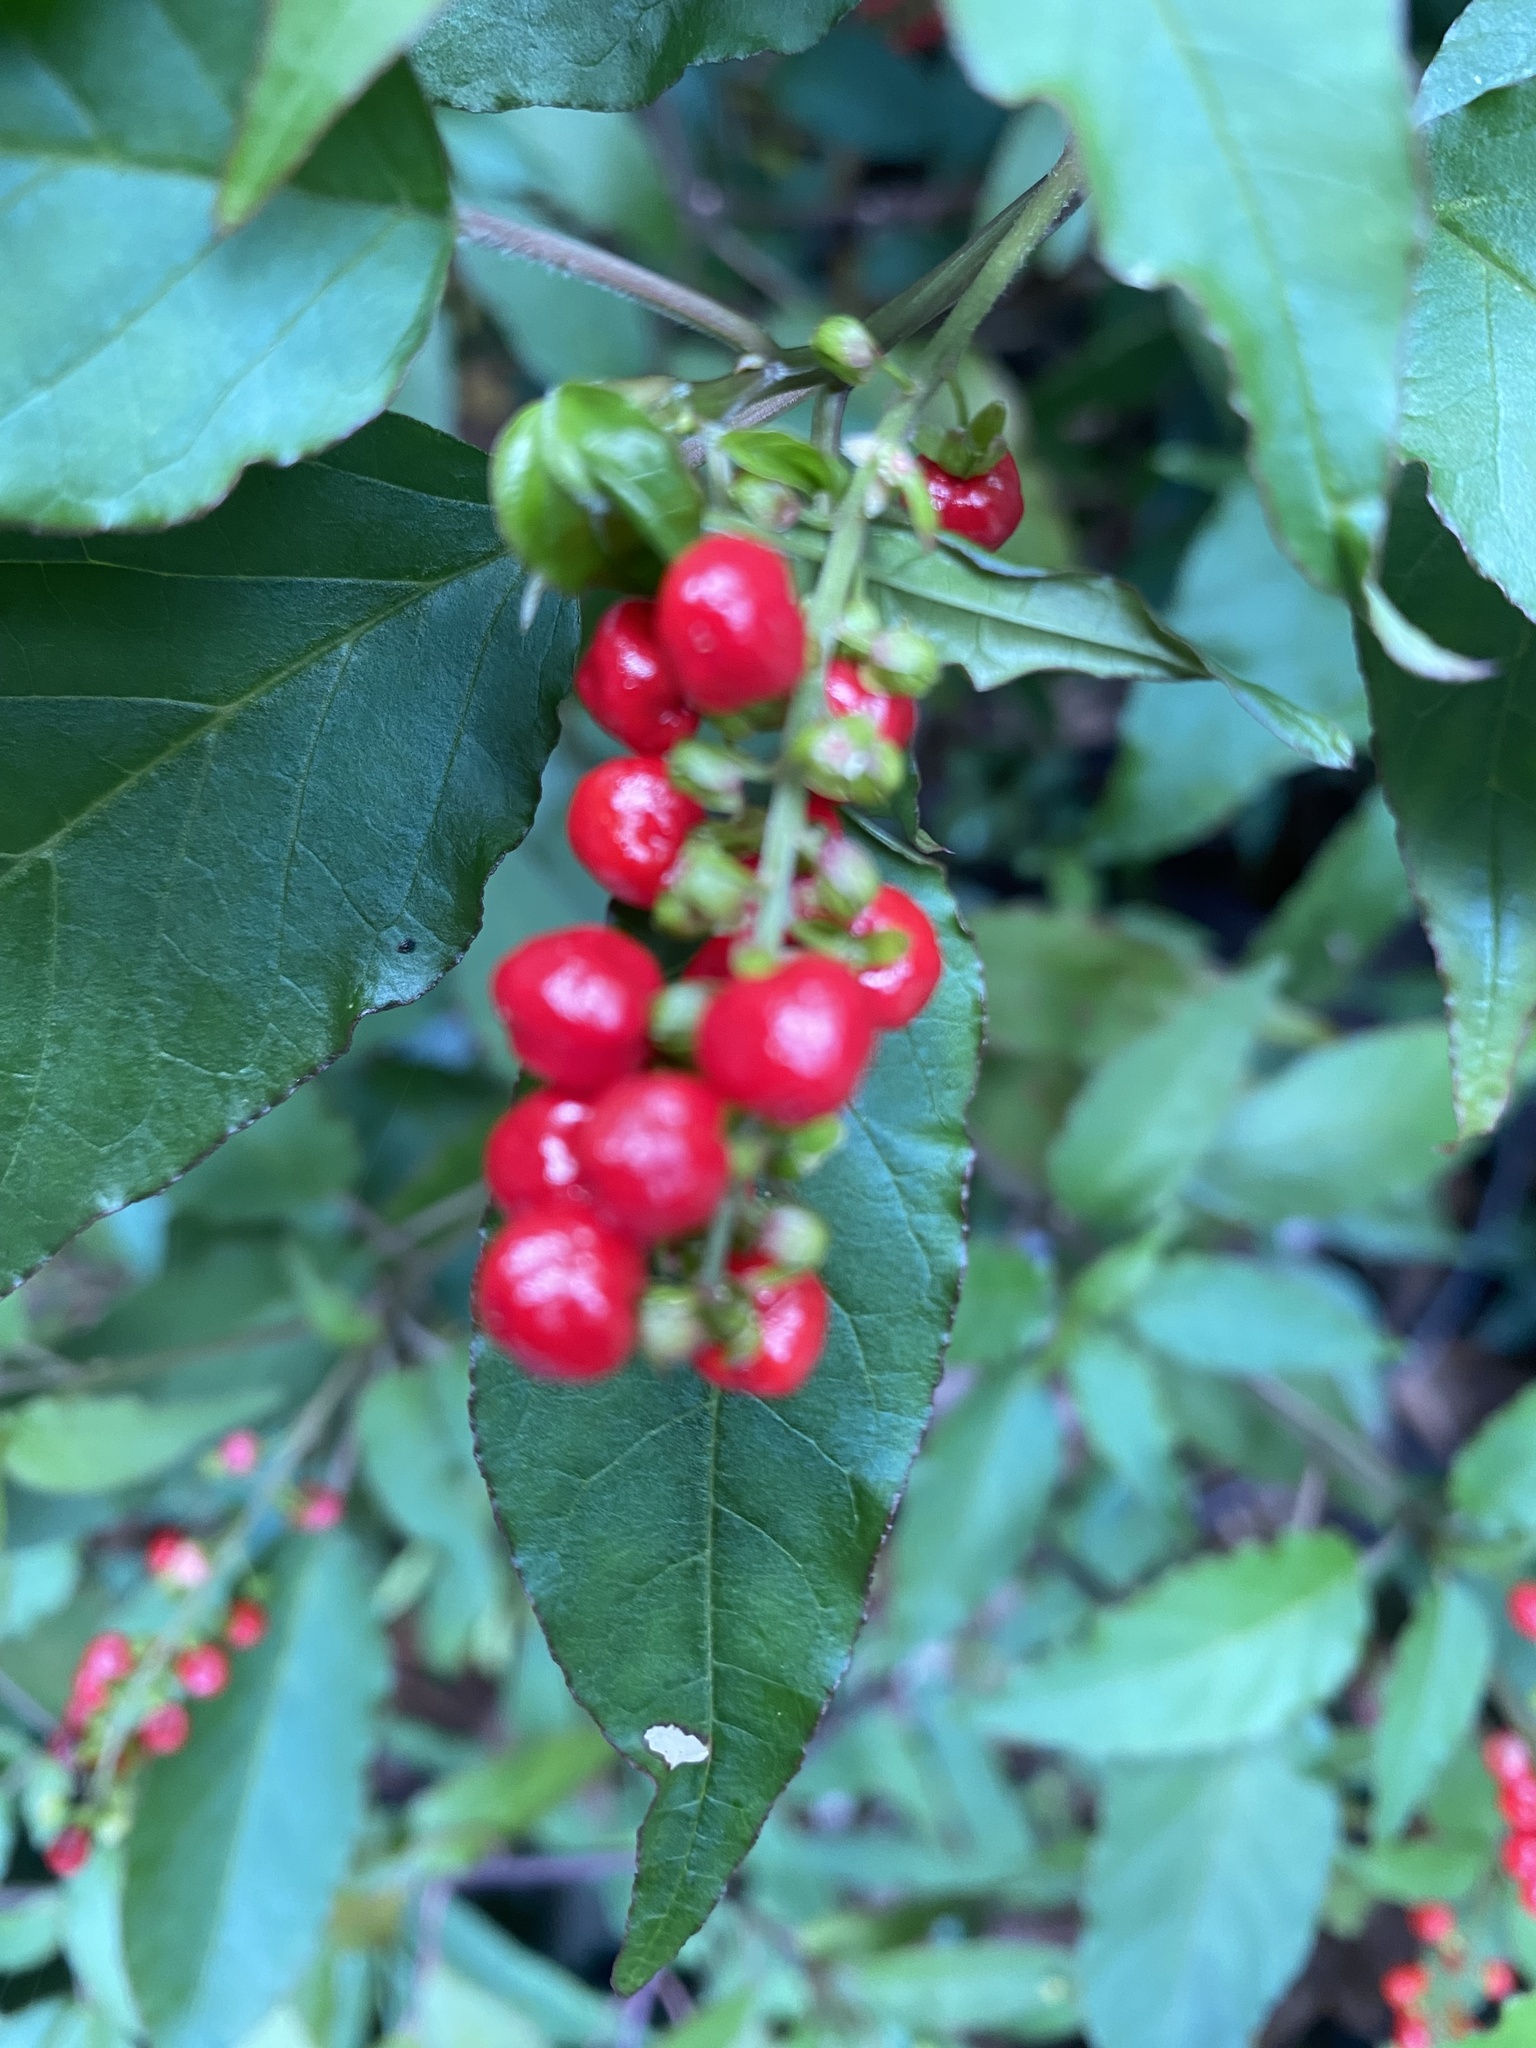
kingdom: Plantae
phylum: Tracheophyta
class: Magnoliopsida
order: Caryophyllales
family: Phytolaccaceae
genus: Rivina
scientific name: Rivina humilis
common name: Rougeplant
